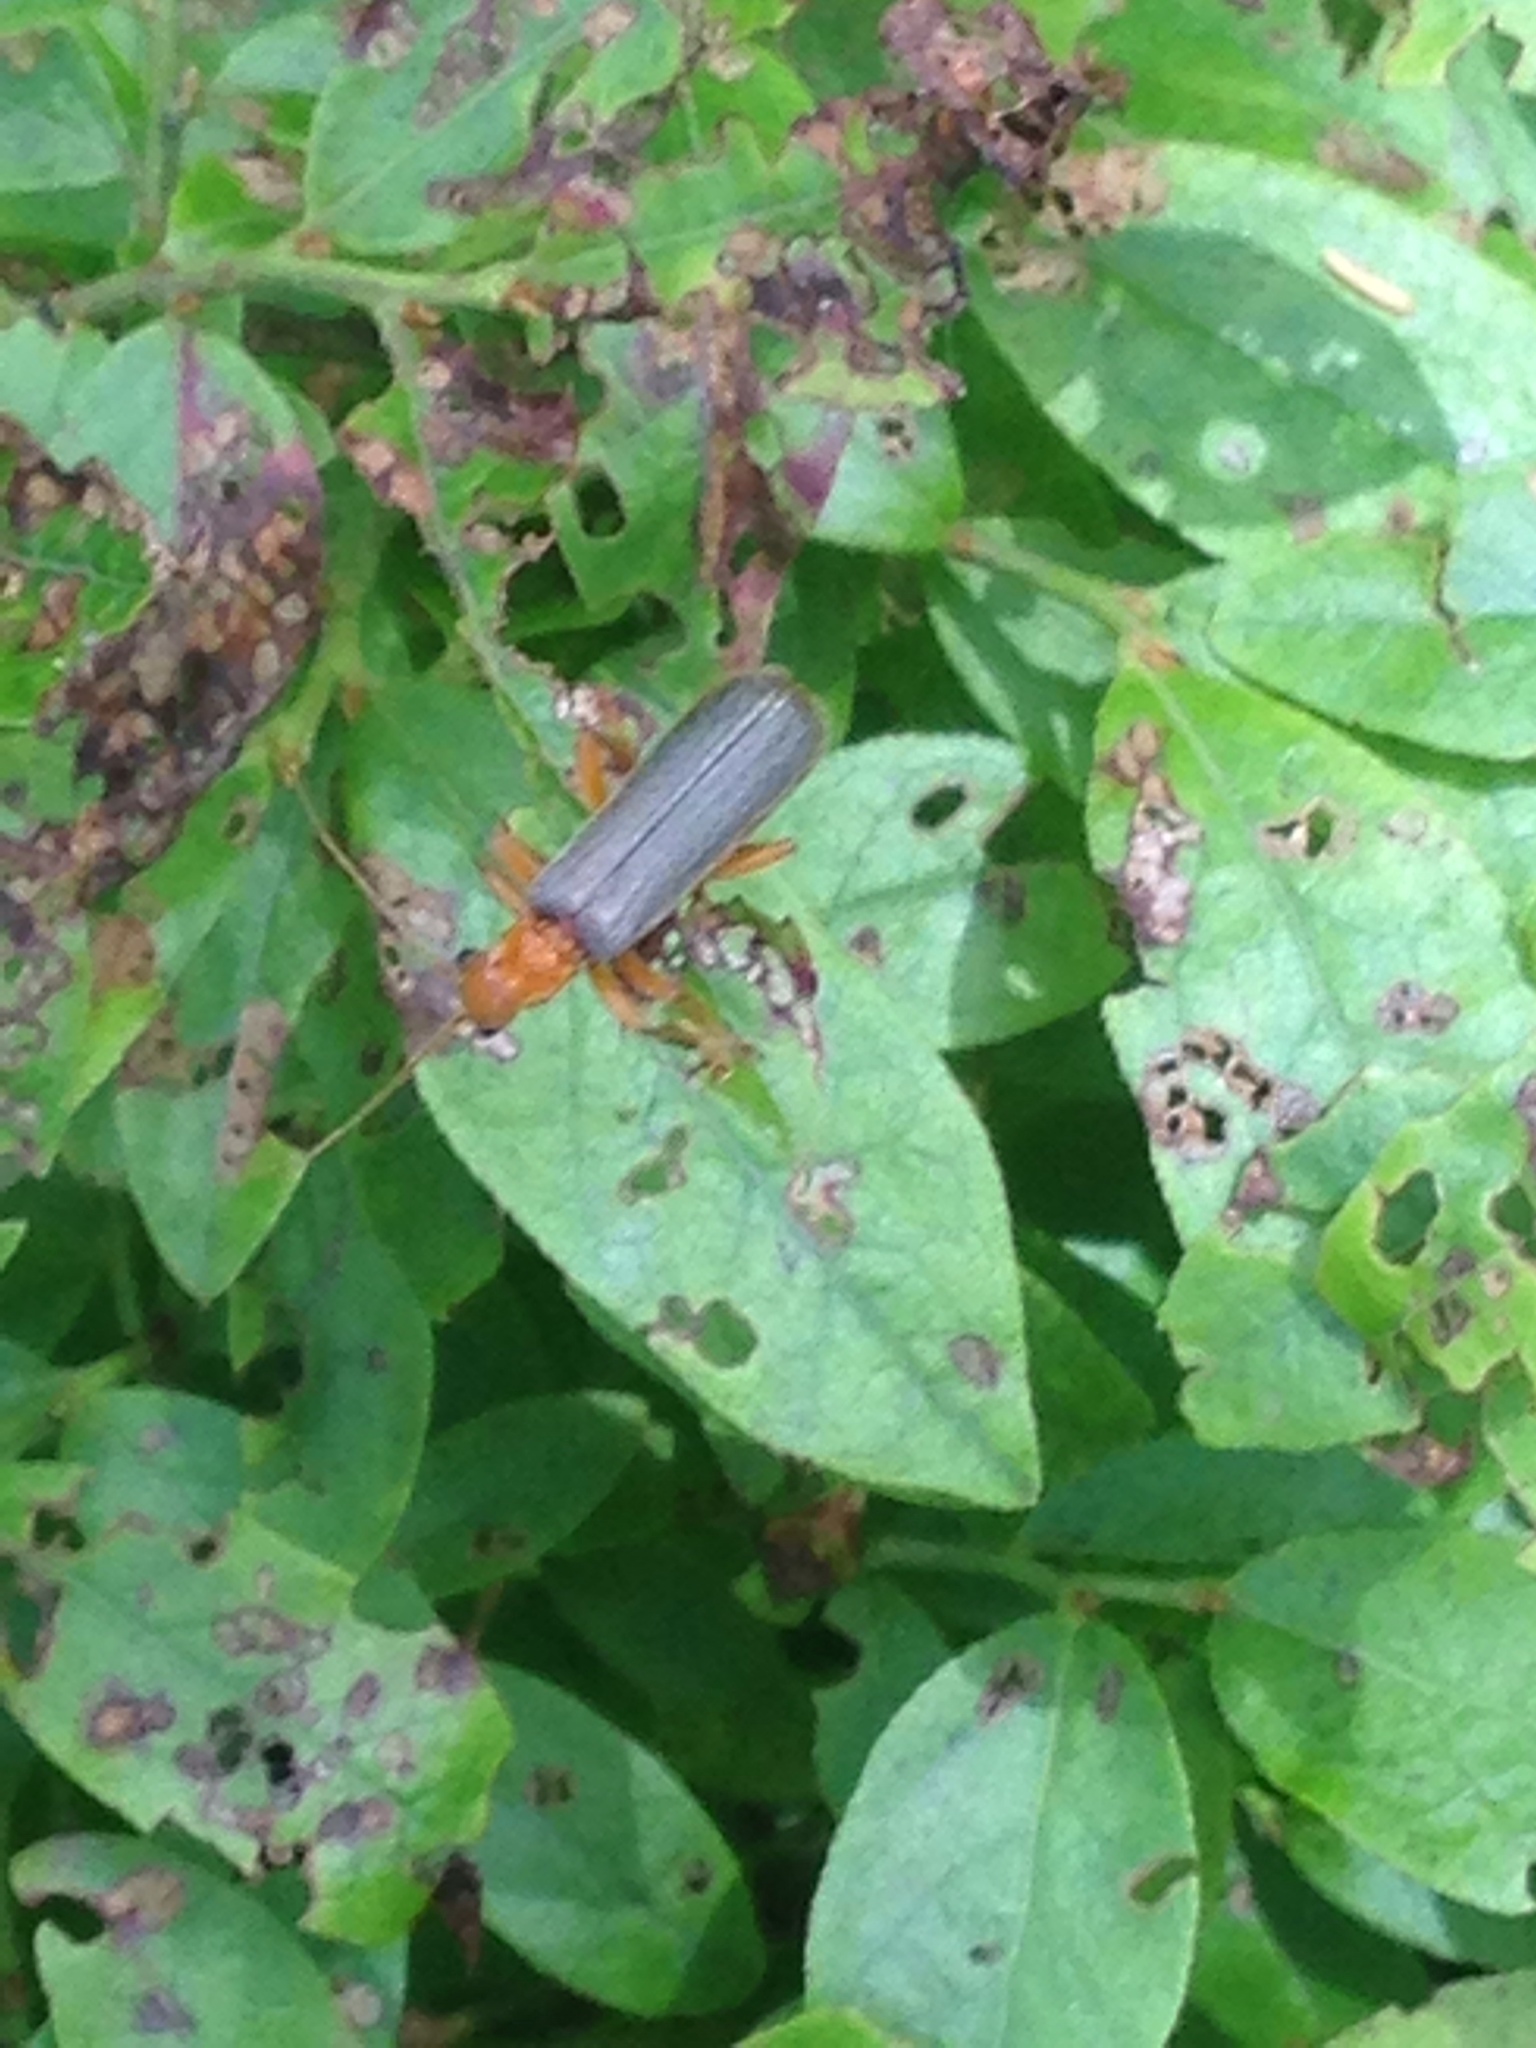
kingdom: Animalia
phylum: Arthropoda
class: Insecta
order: Coleoptera
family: Cantharidae
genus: Pacificanthia
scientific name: Pacificanthia rotundicollis
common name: Brown leatherwing beetle
